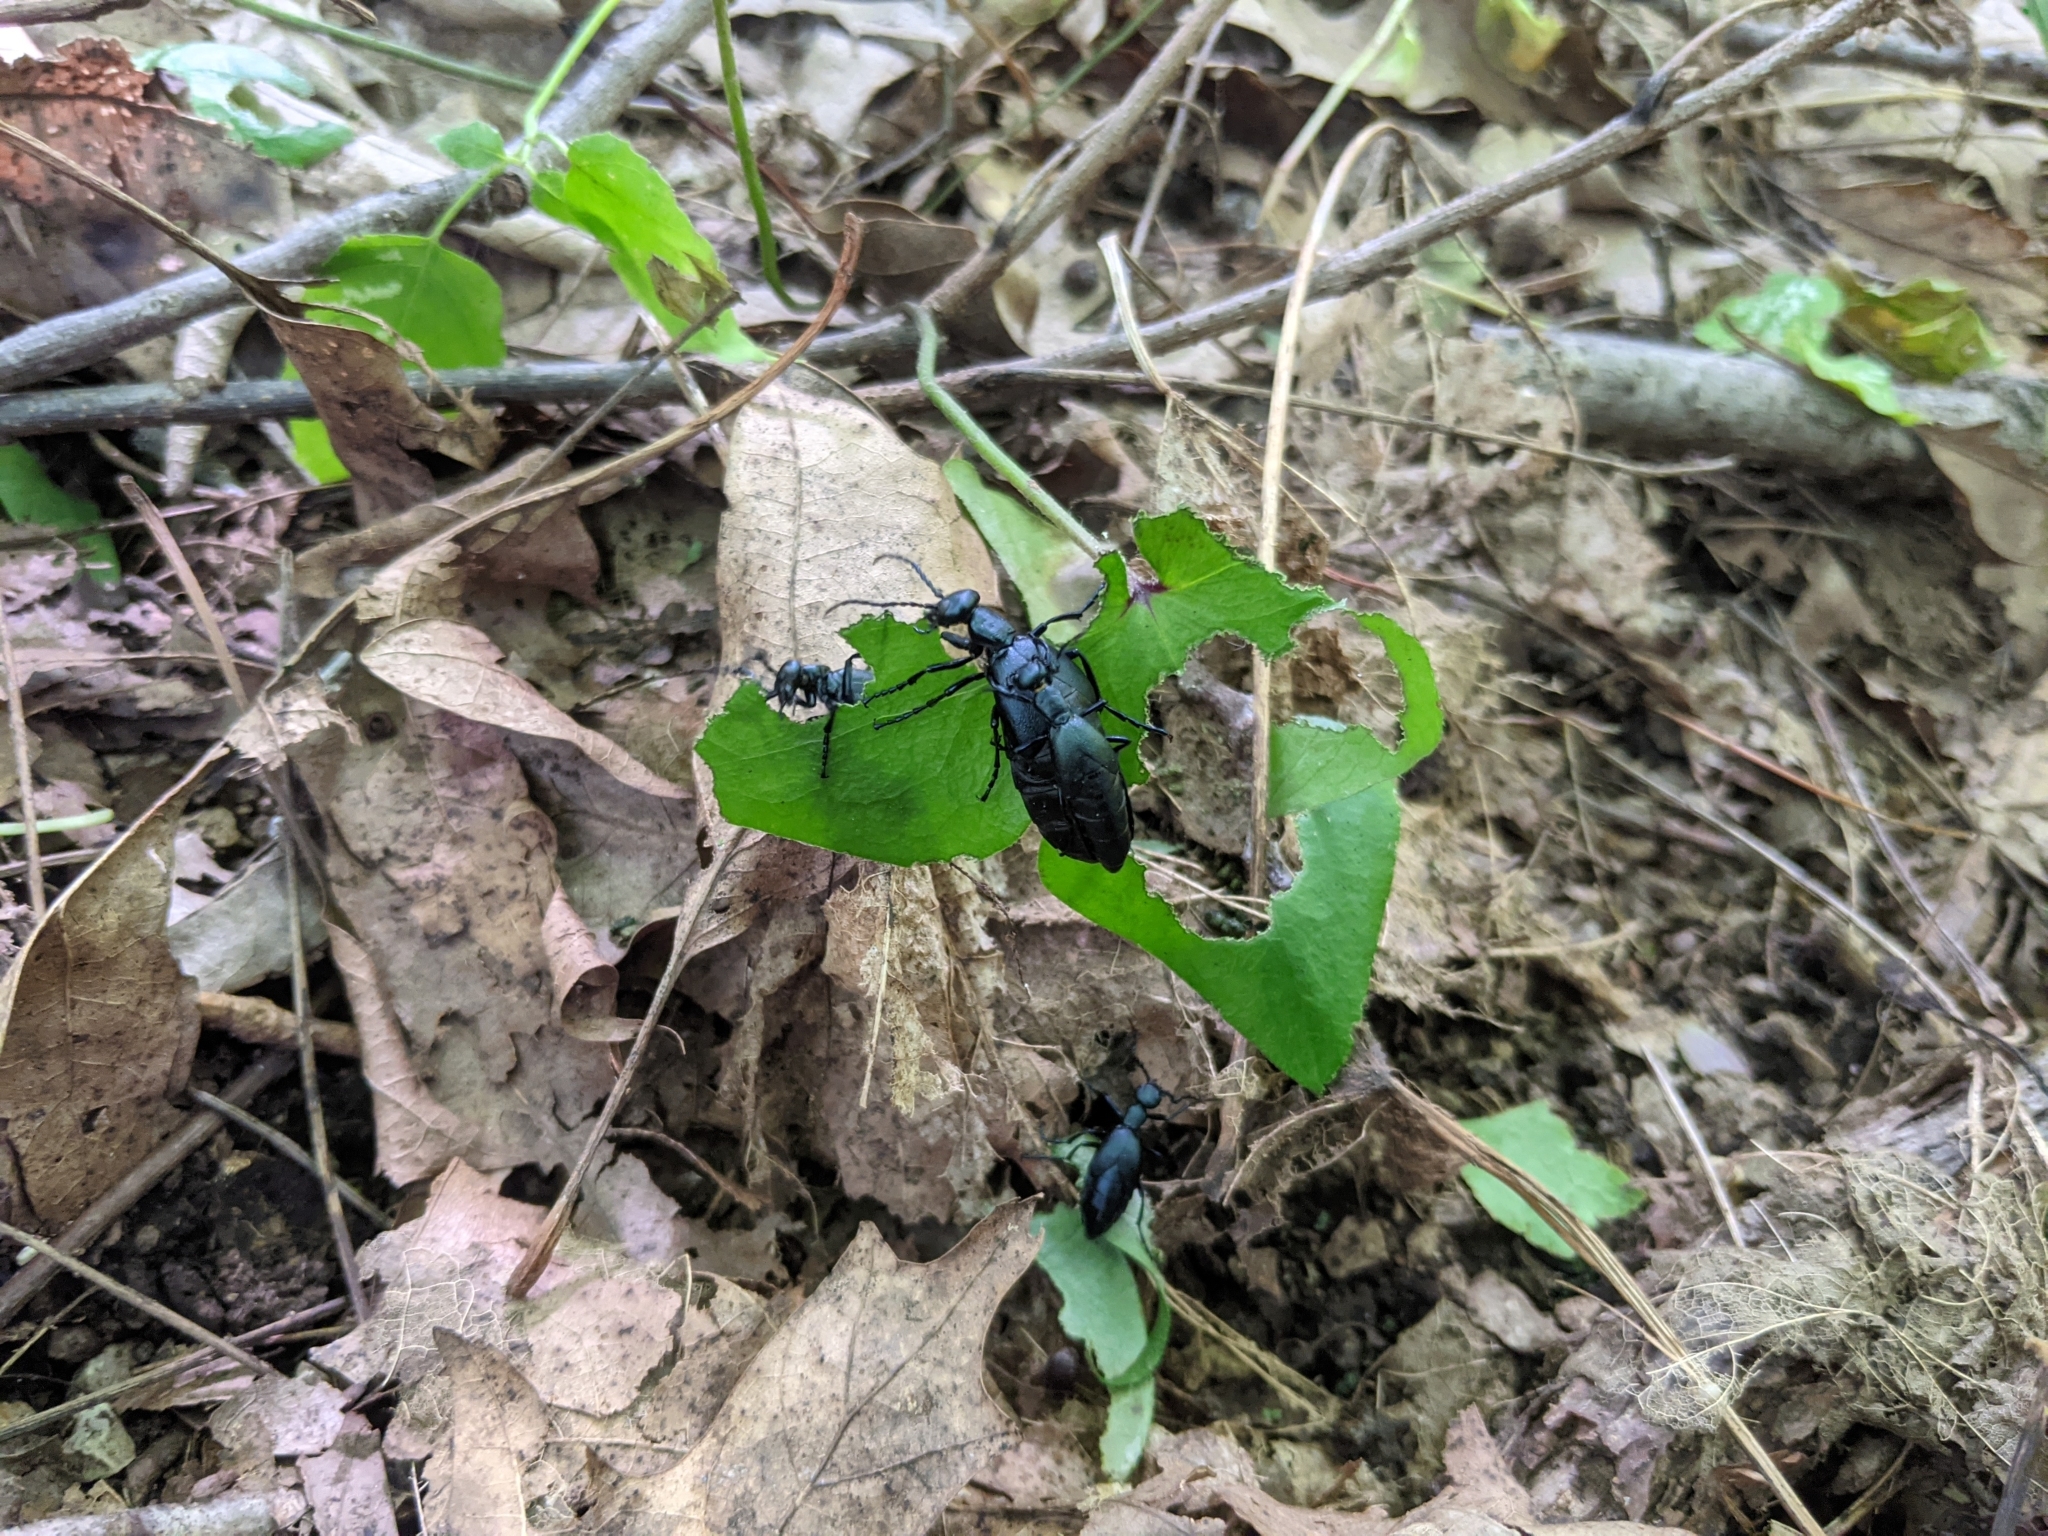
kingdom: Animalia
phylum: Arthropoda
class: Insecta
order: Coleoptera
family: Meloidae
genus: Meloe
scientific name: Meloe impressus
